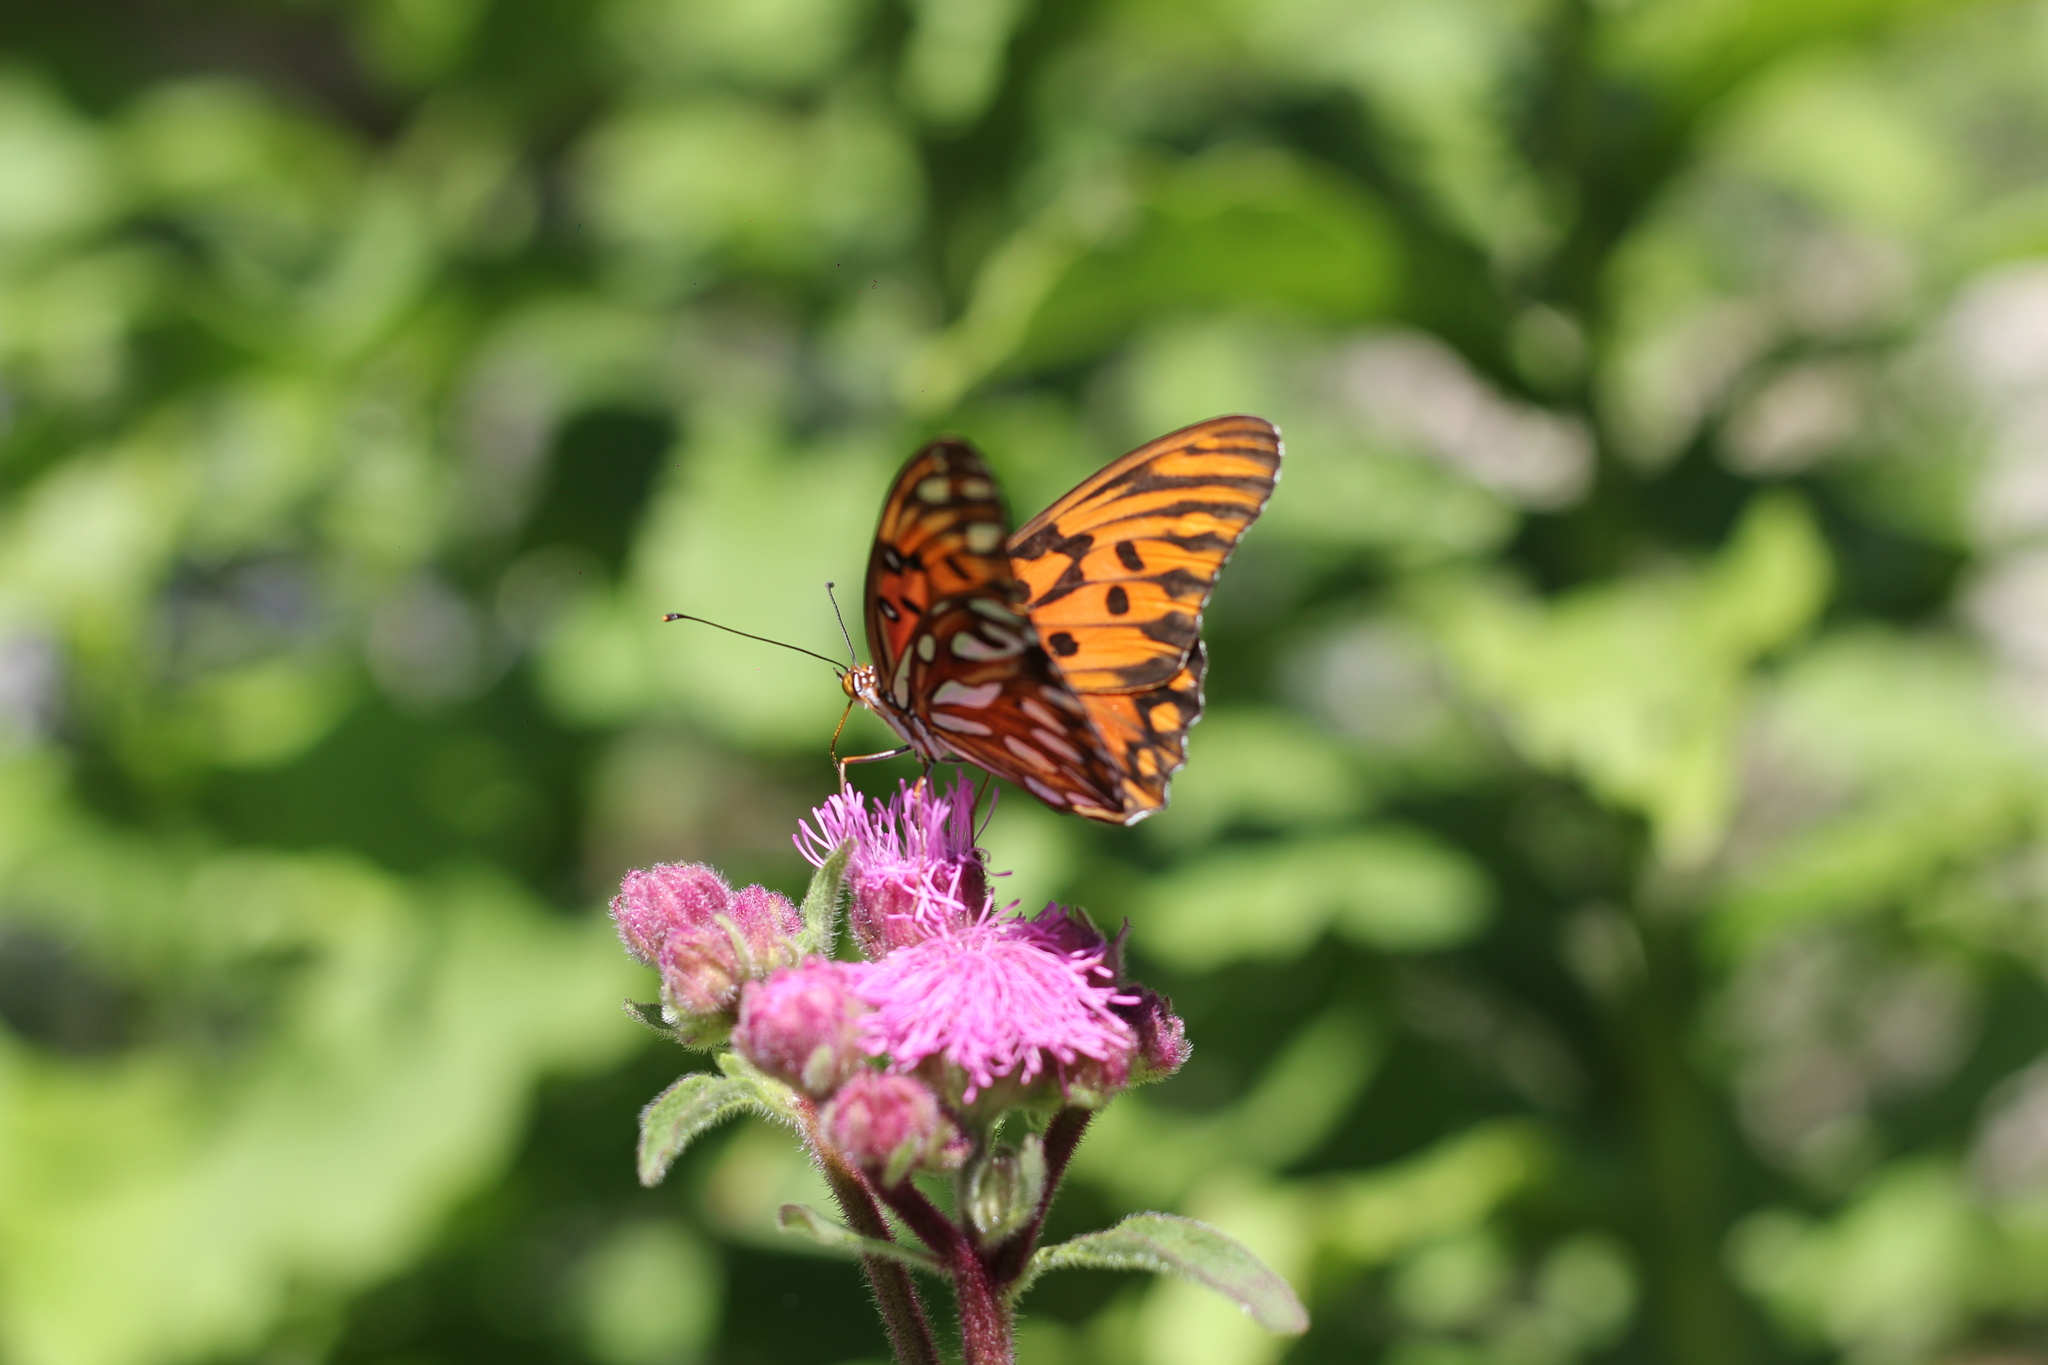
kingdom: Animalia
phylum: Arthropoda
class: Insecta
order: Lepidoptera
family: Nymphalidae
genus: Dione
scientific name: Dione vanillae
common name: Gulf fritillary
